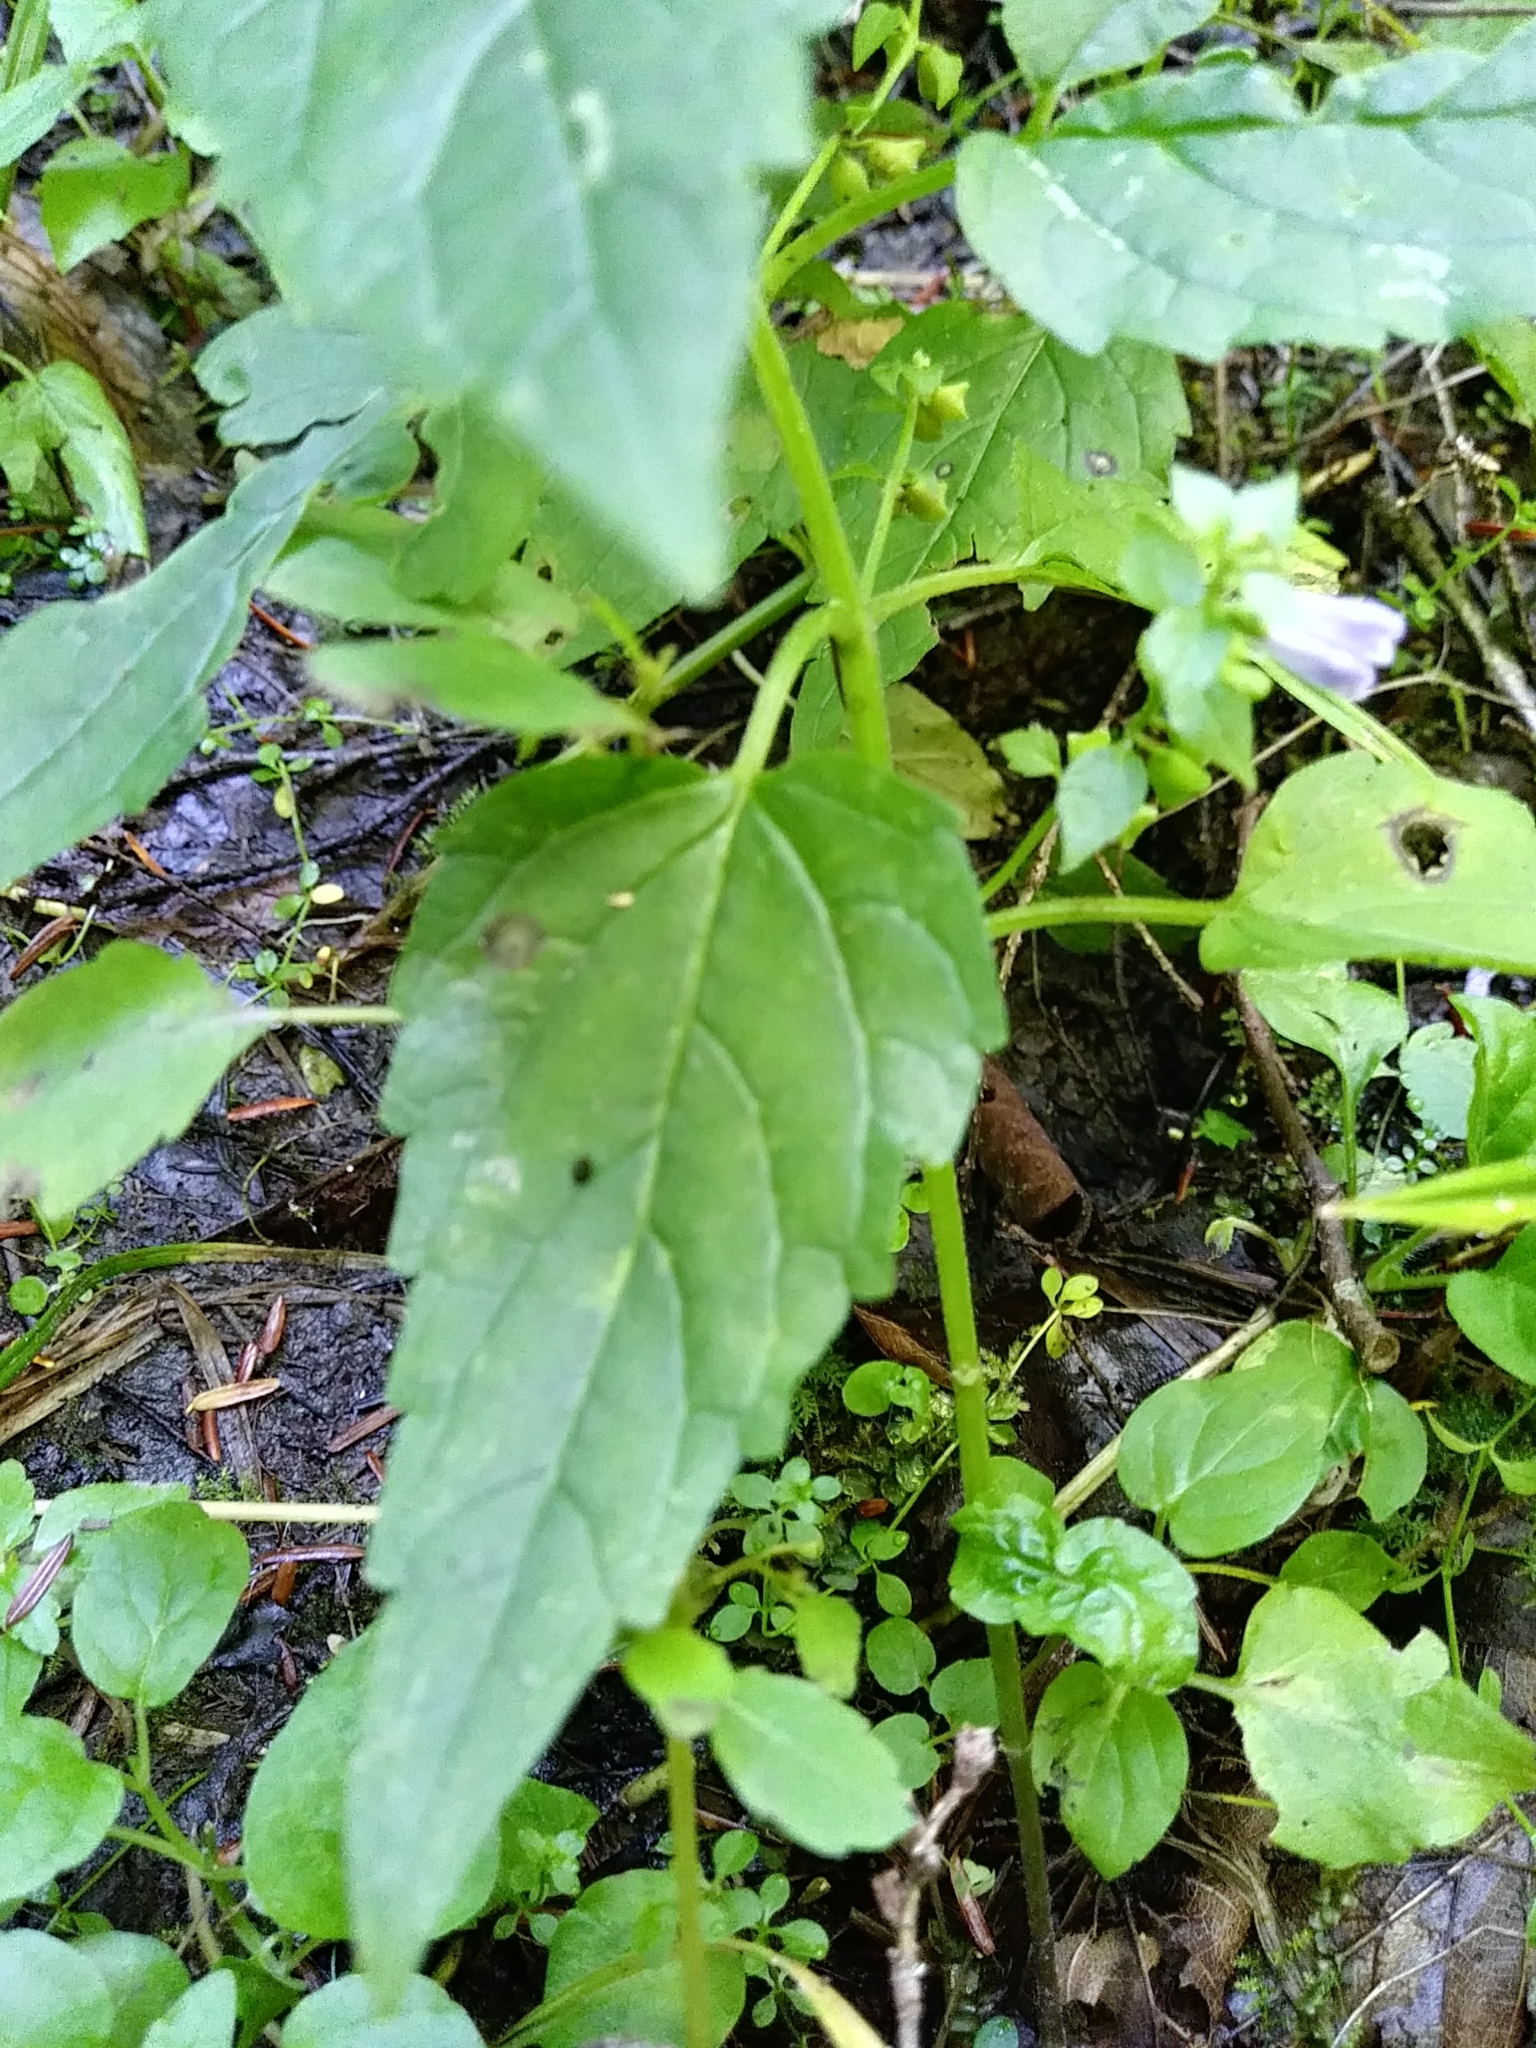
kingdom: Plantae
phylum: Tracheophyta
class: Magnoliopsida
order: Lamiales
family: Lamiaceae
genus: Scutellaria
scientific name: Scutellaria lateriflora
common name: Blue skullcap
